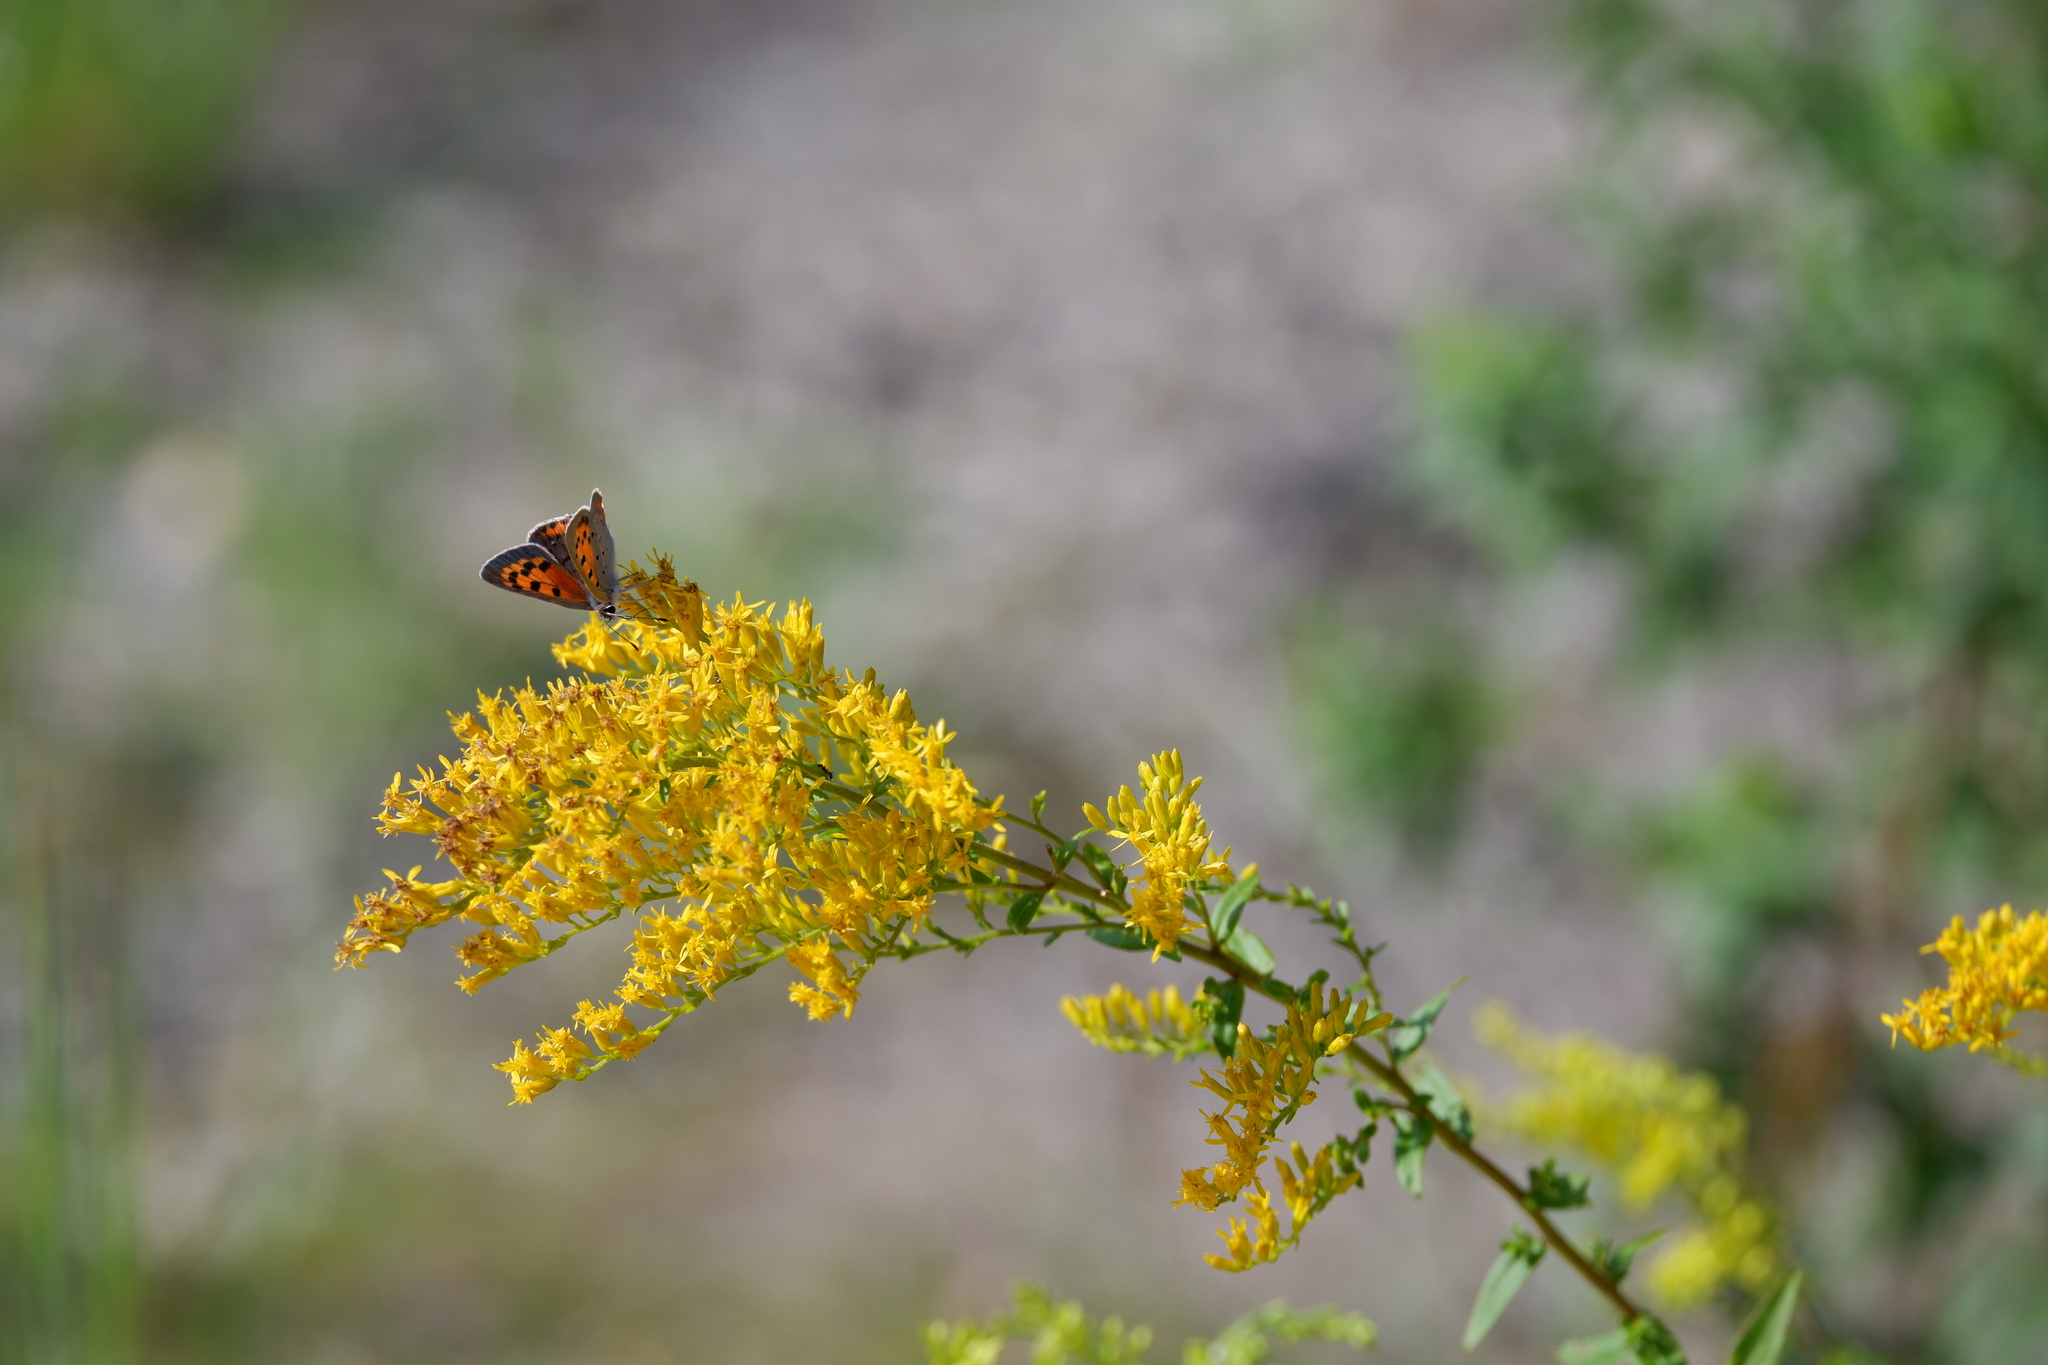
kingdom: Animalia
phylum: Arthropoda
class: Insecta
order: Lepidoptera
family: Lycaenidae
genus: Lycaena
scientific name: Lycaena hypophlaeas
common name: American copper
